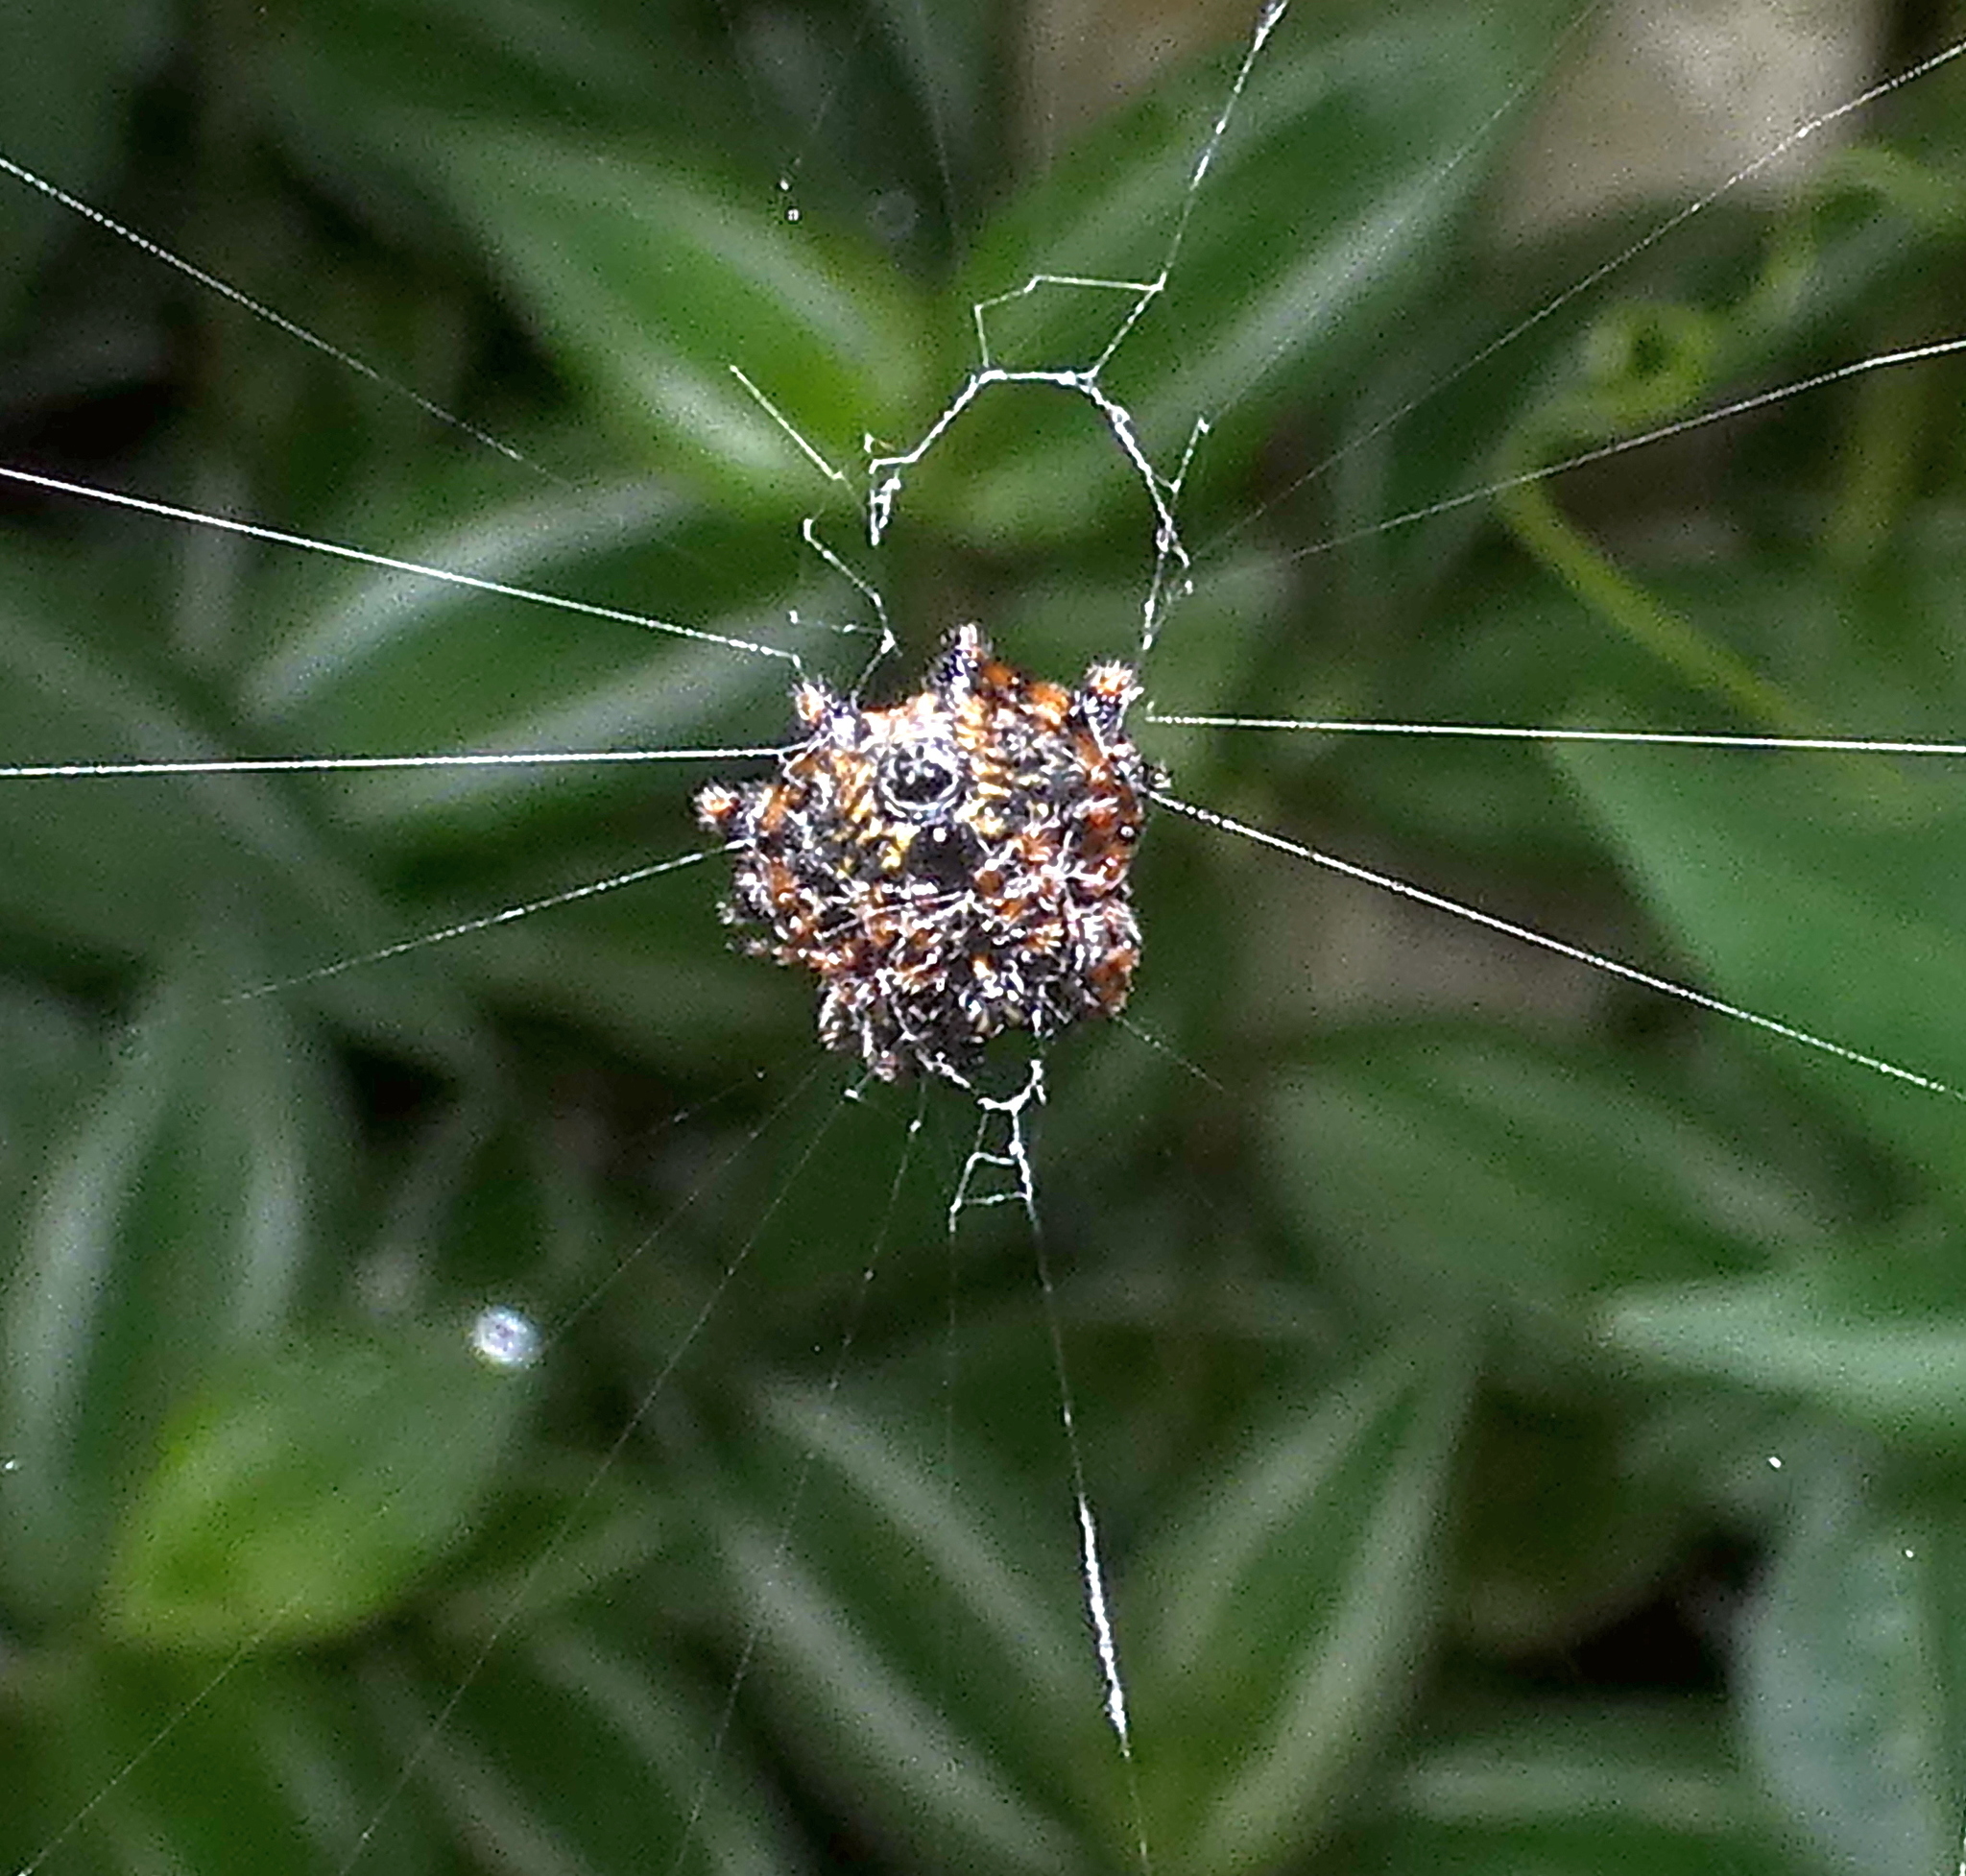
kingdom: Animalia
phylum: Arthropoda
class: Arachnida
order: Araneae
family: Araneidae
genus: Gasteracantha
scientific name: Gasteracantha cancriformis
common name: Orb weavers
